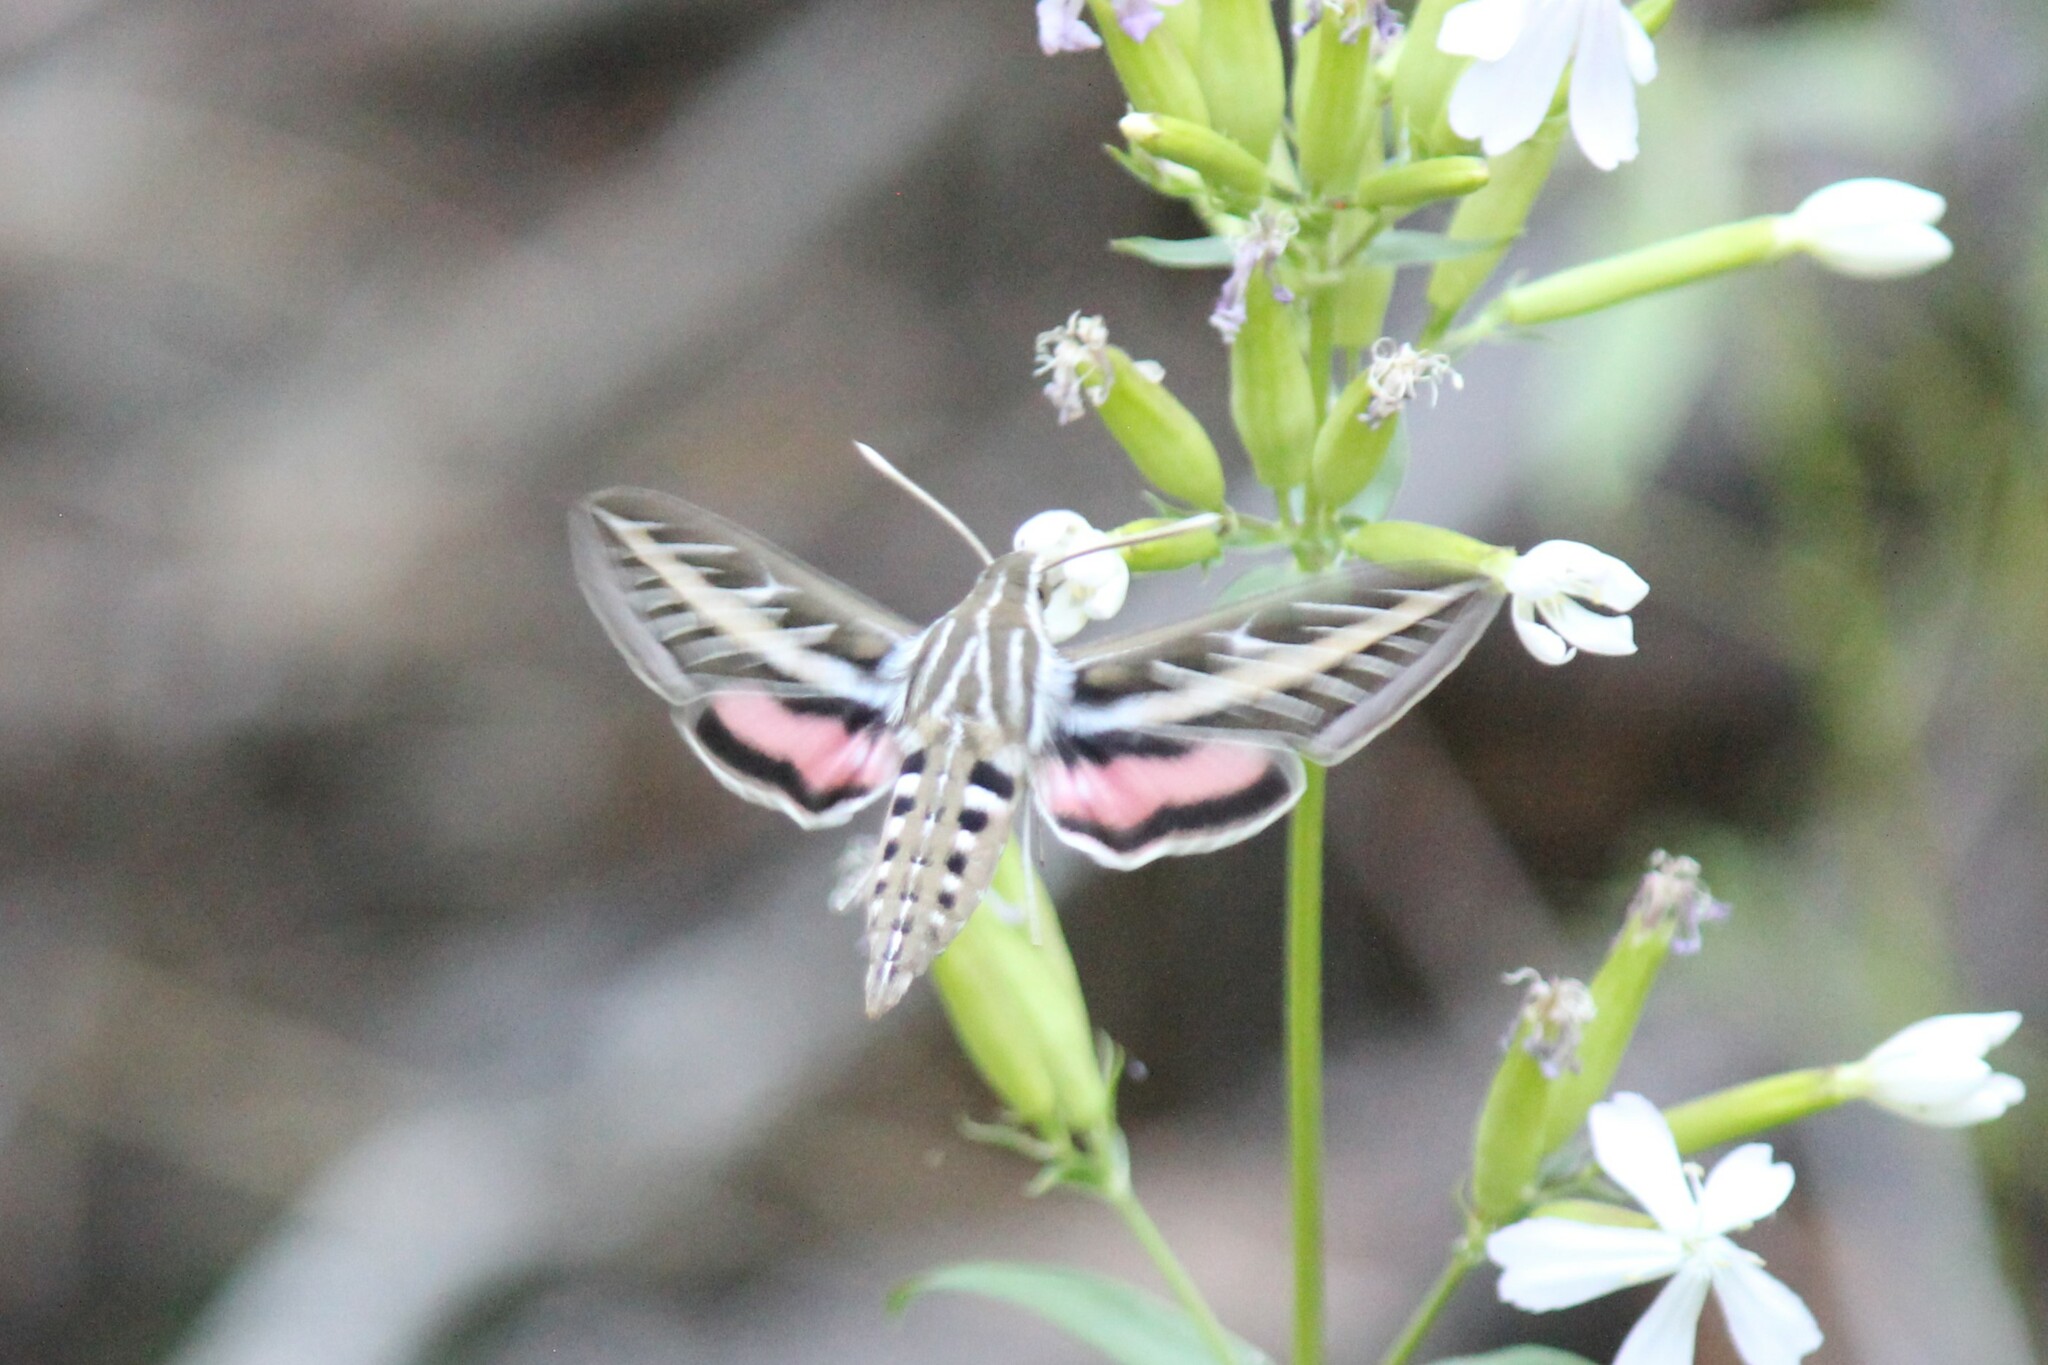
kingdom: Animalia
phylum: Arthropoda
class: Insecta
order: Lepidoptera
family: Sphingidae
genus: Hyles
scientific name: Hyles lineata
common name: White-lined sphinx
